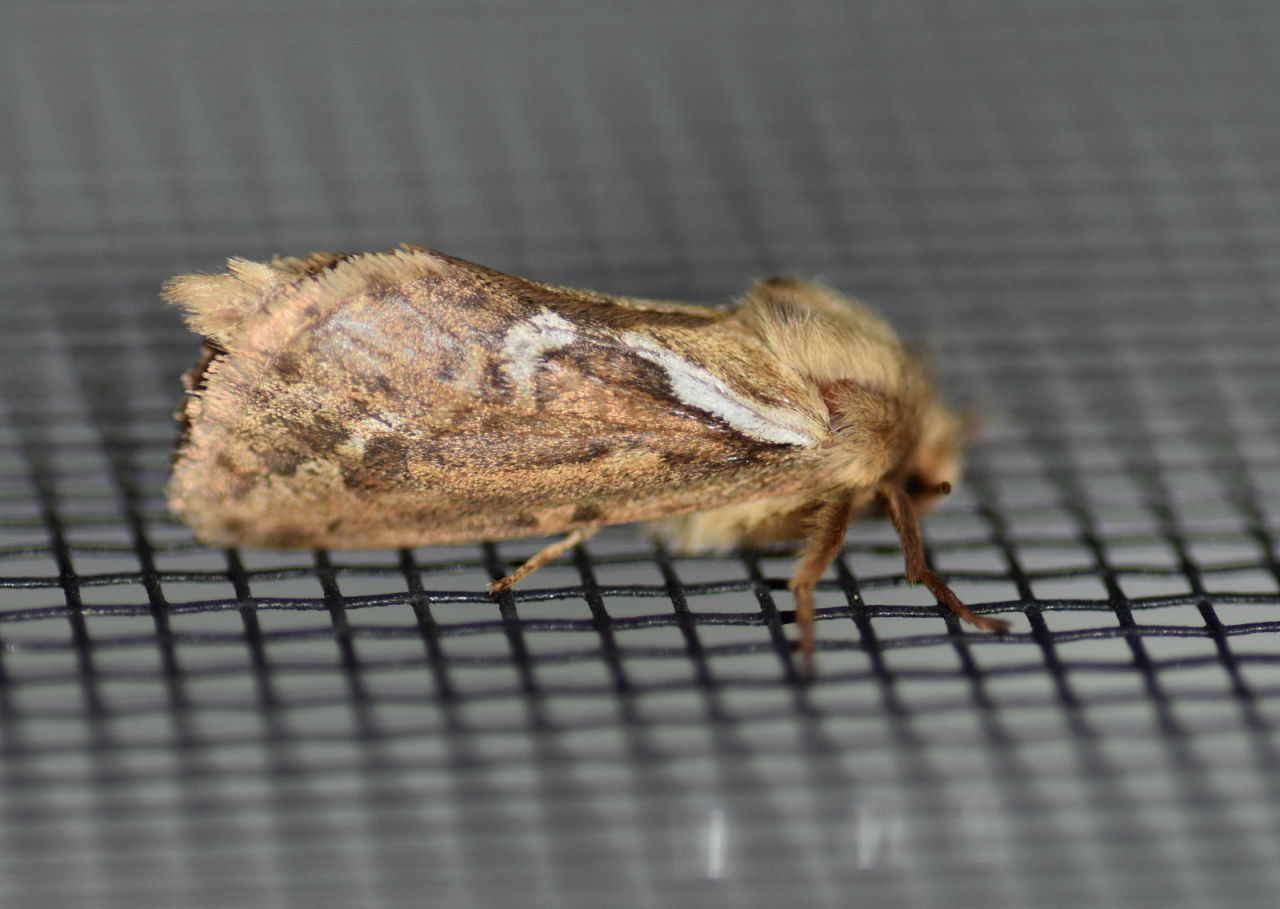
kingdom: Animalia
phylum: Arthropoda
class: Insecta
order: Lepidoptera
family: Hepialidae
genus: Korscheltellus
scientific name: Korscheltellus lupulina
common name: Common swift
